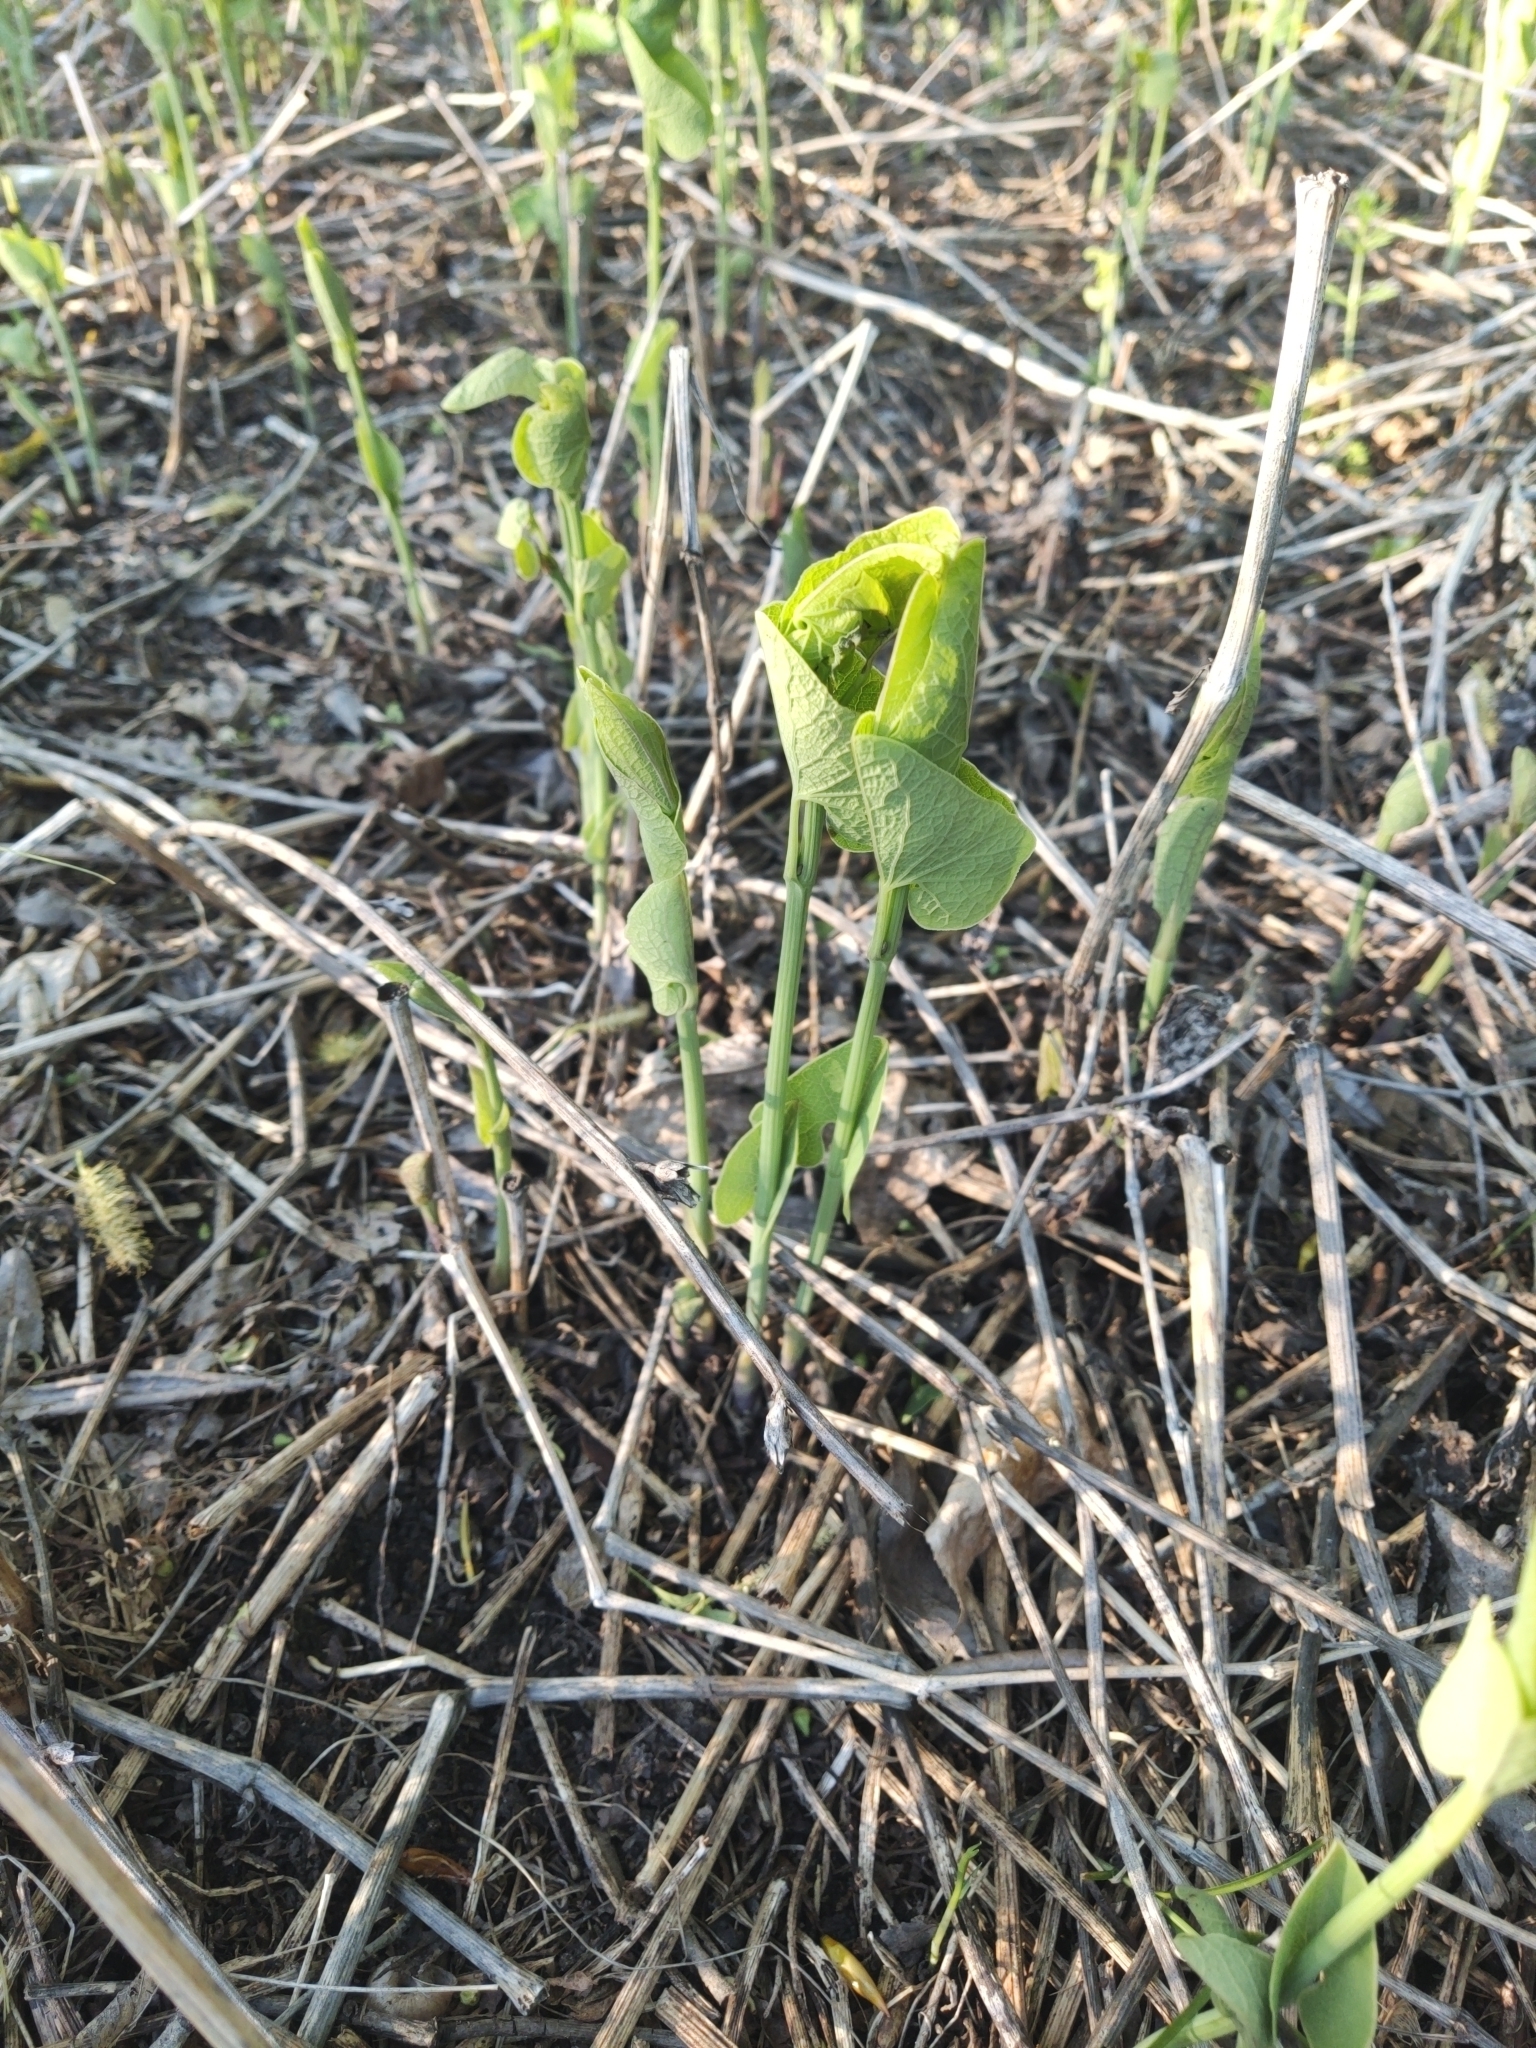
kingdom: Plantae
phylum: Tracheophyta
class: Magnoliopsida
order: Piperales
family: Aristolochiaceae
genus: Aristolochia
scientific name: Aristolochia clematitis
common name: Birthwort
